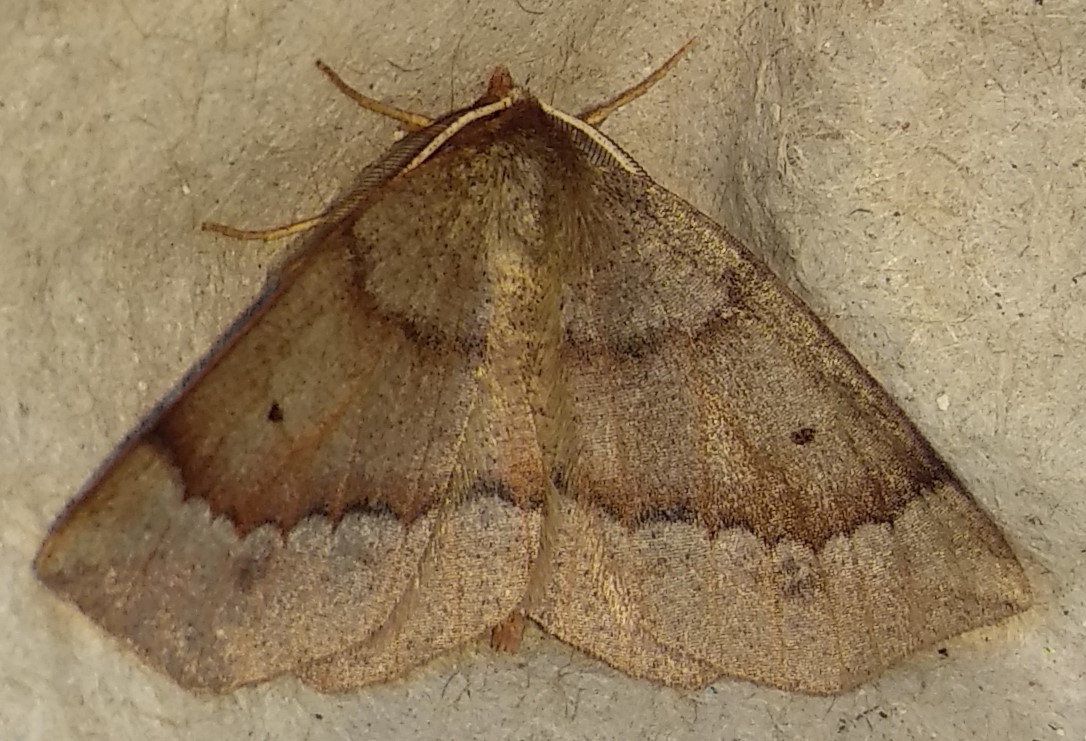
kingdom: Animalia
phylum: Arthropoda
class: Insecta
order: Lepidoptera
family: Geometridae
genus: Metarranthis
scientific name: Metarranthis duaria
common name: Ruddy metarranthis moth
